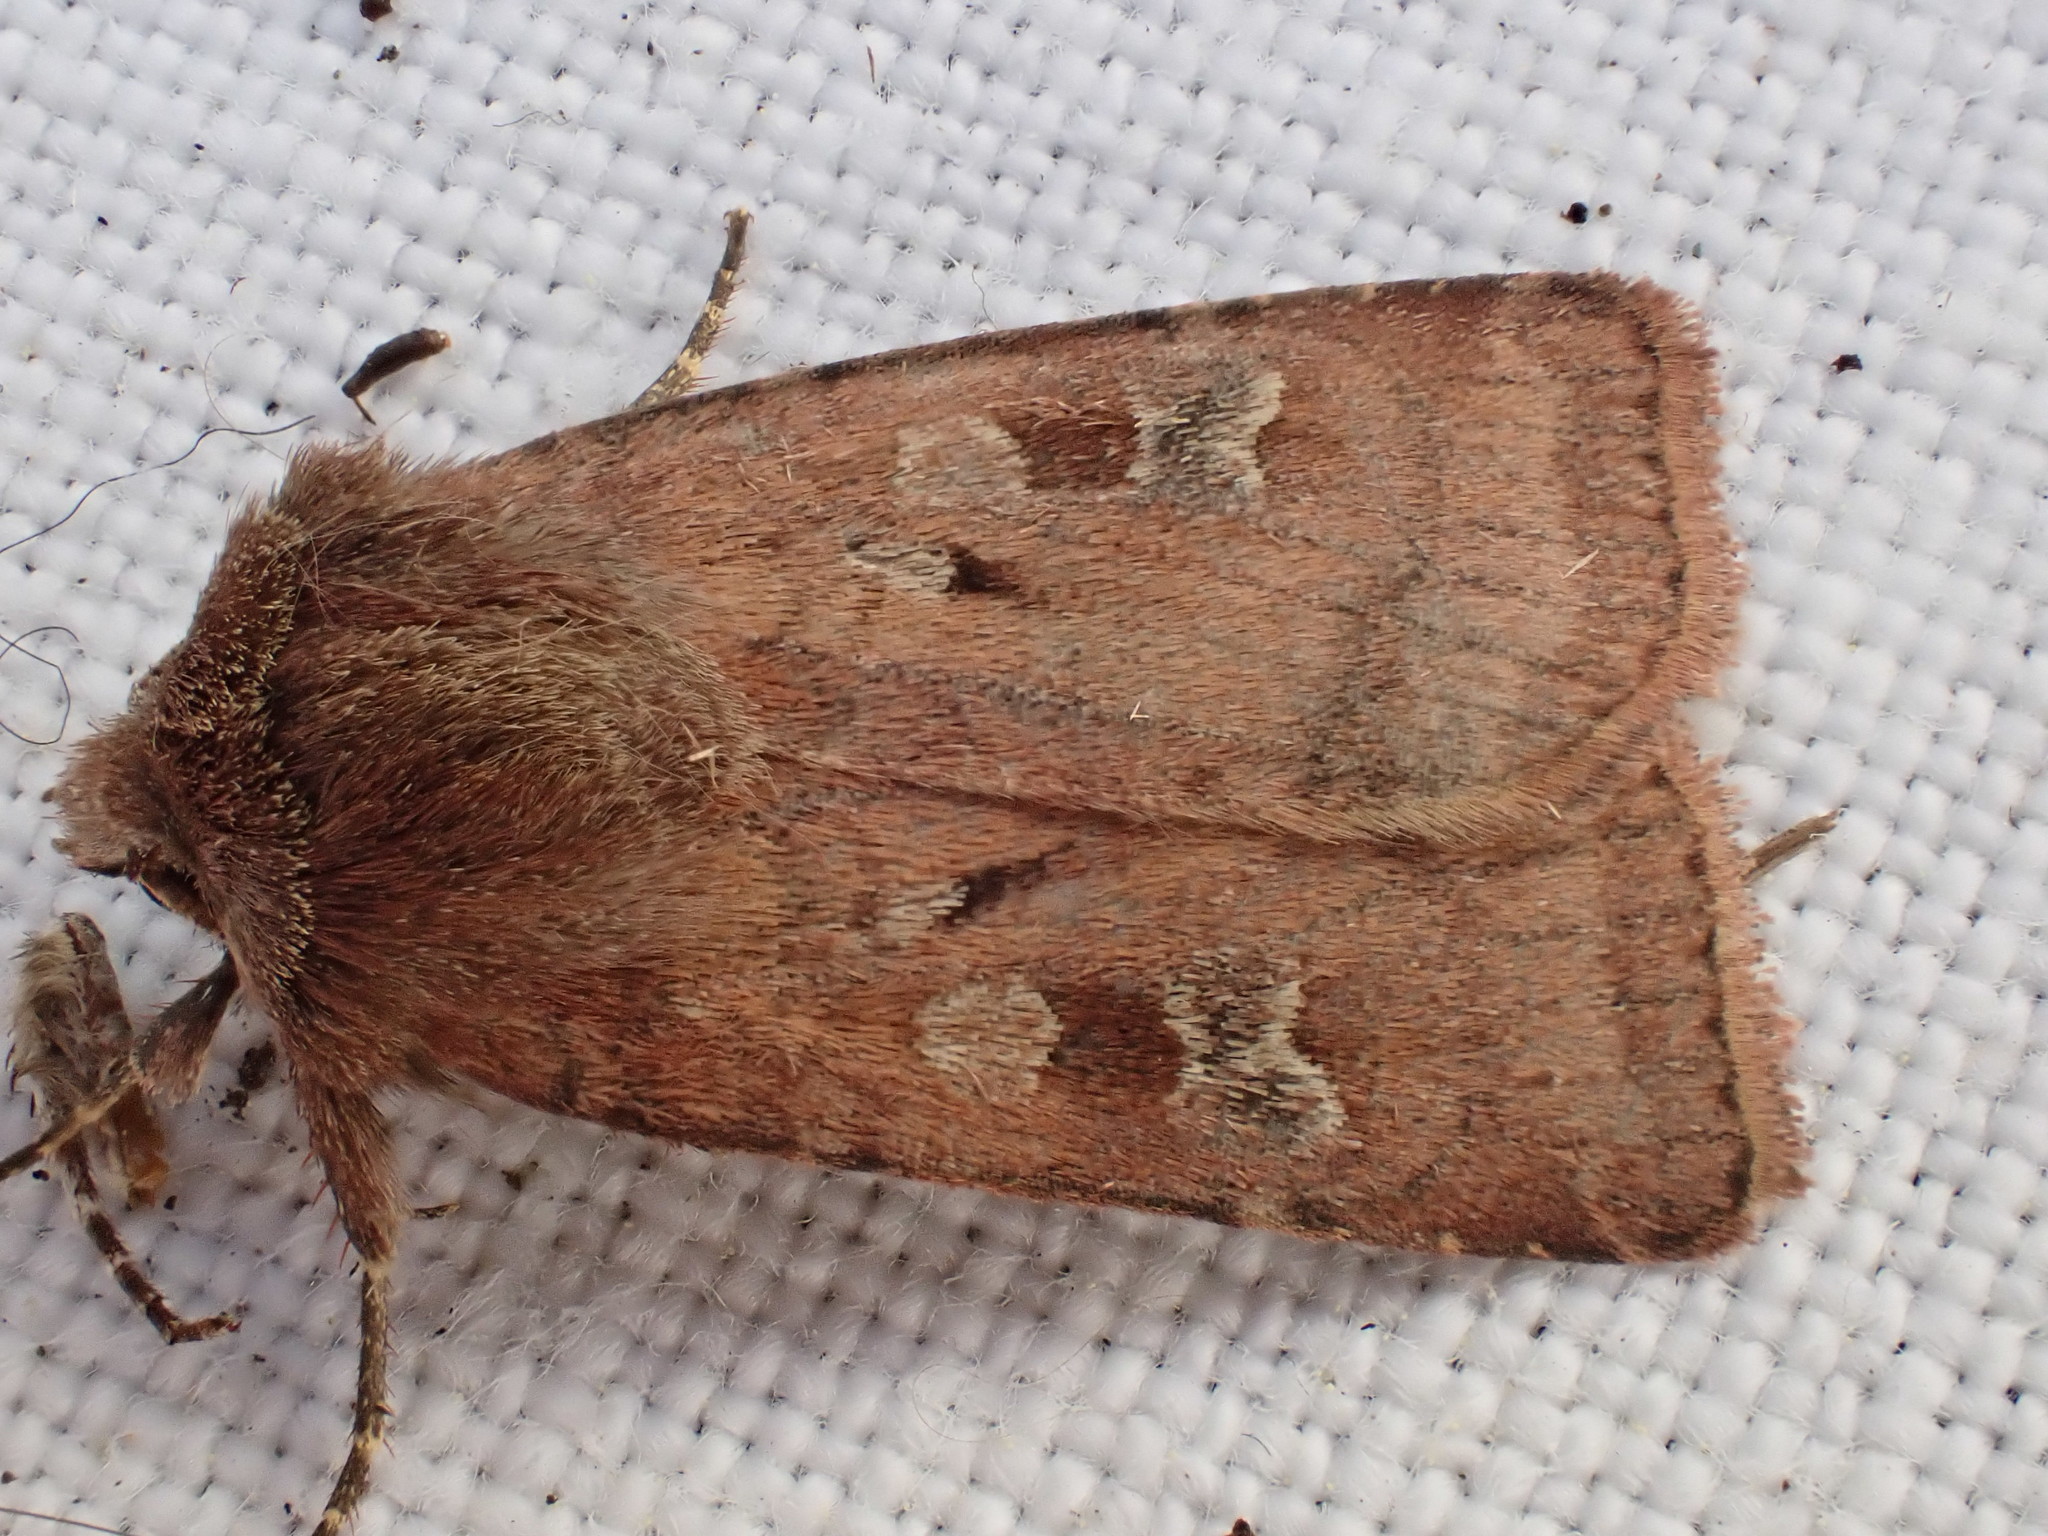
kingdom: Animalia
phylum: Arthropoda
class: Insecta
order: Lepidoptera
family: Noctuidae
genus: Diarsia
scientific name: Diarsia rubi
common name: Small square-spot
